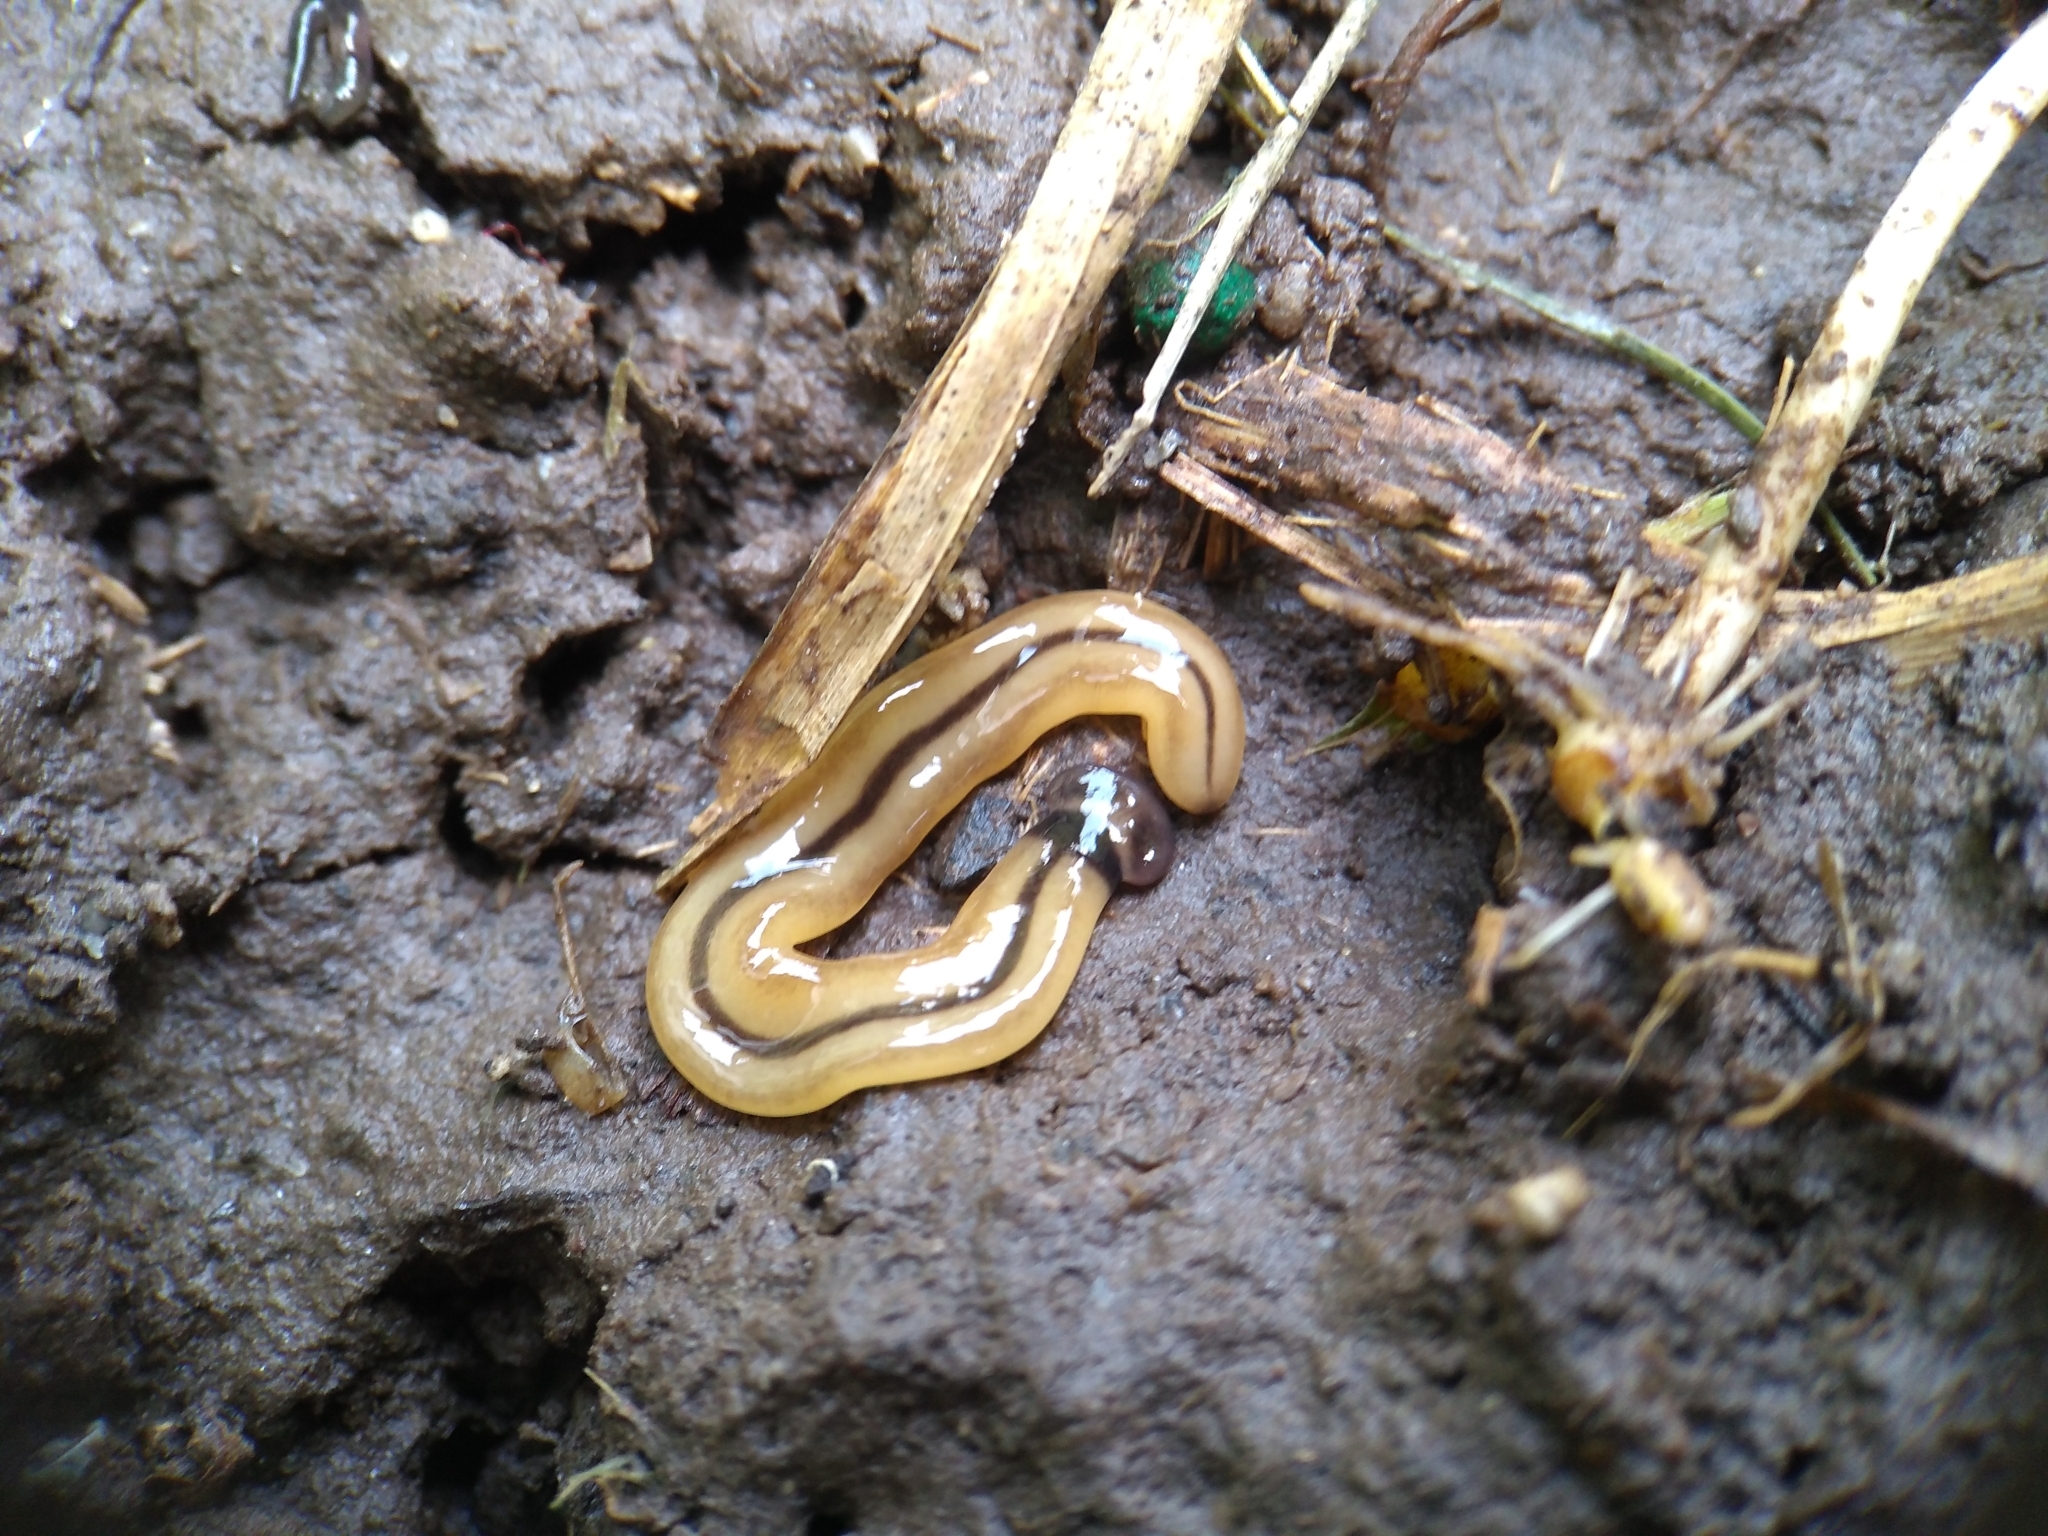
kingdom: Animalia
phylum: Platyhelminthes
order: Tricladida
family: Geoplanidae
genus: Bipalium
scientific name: Bipalium vagum
